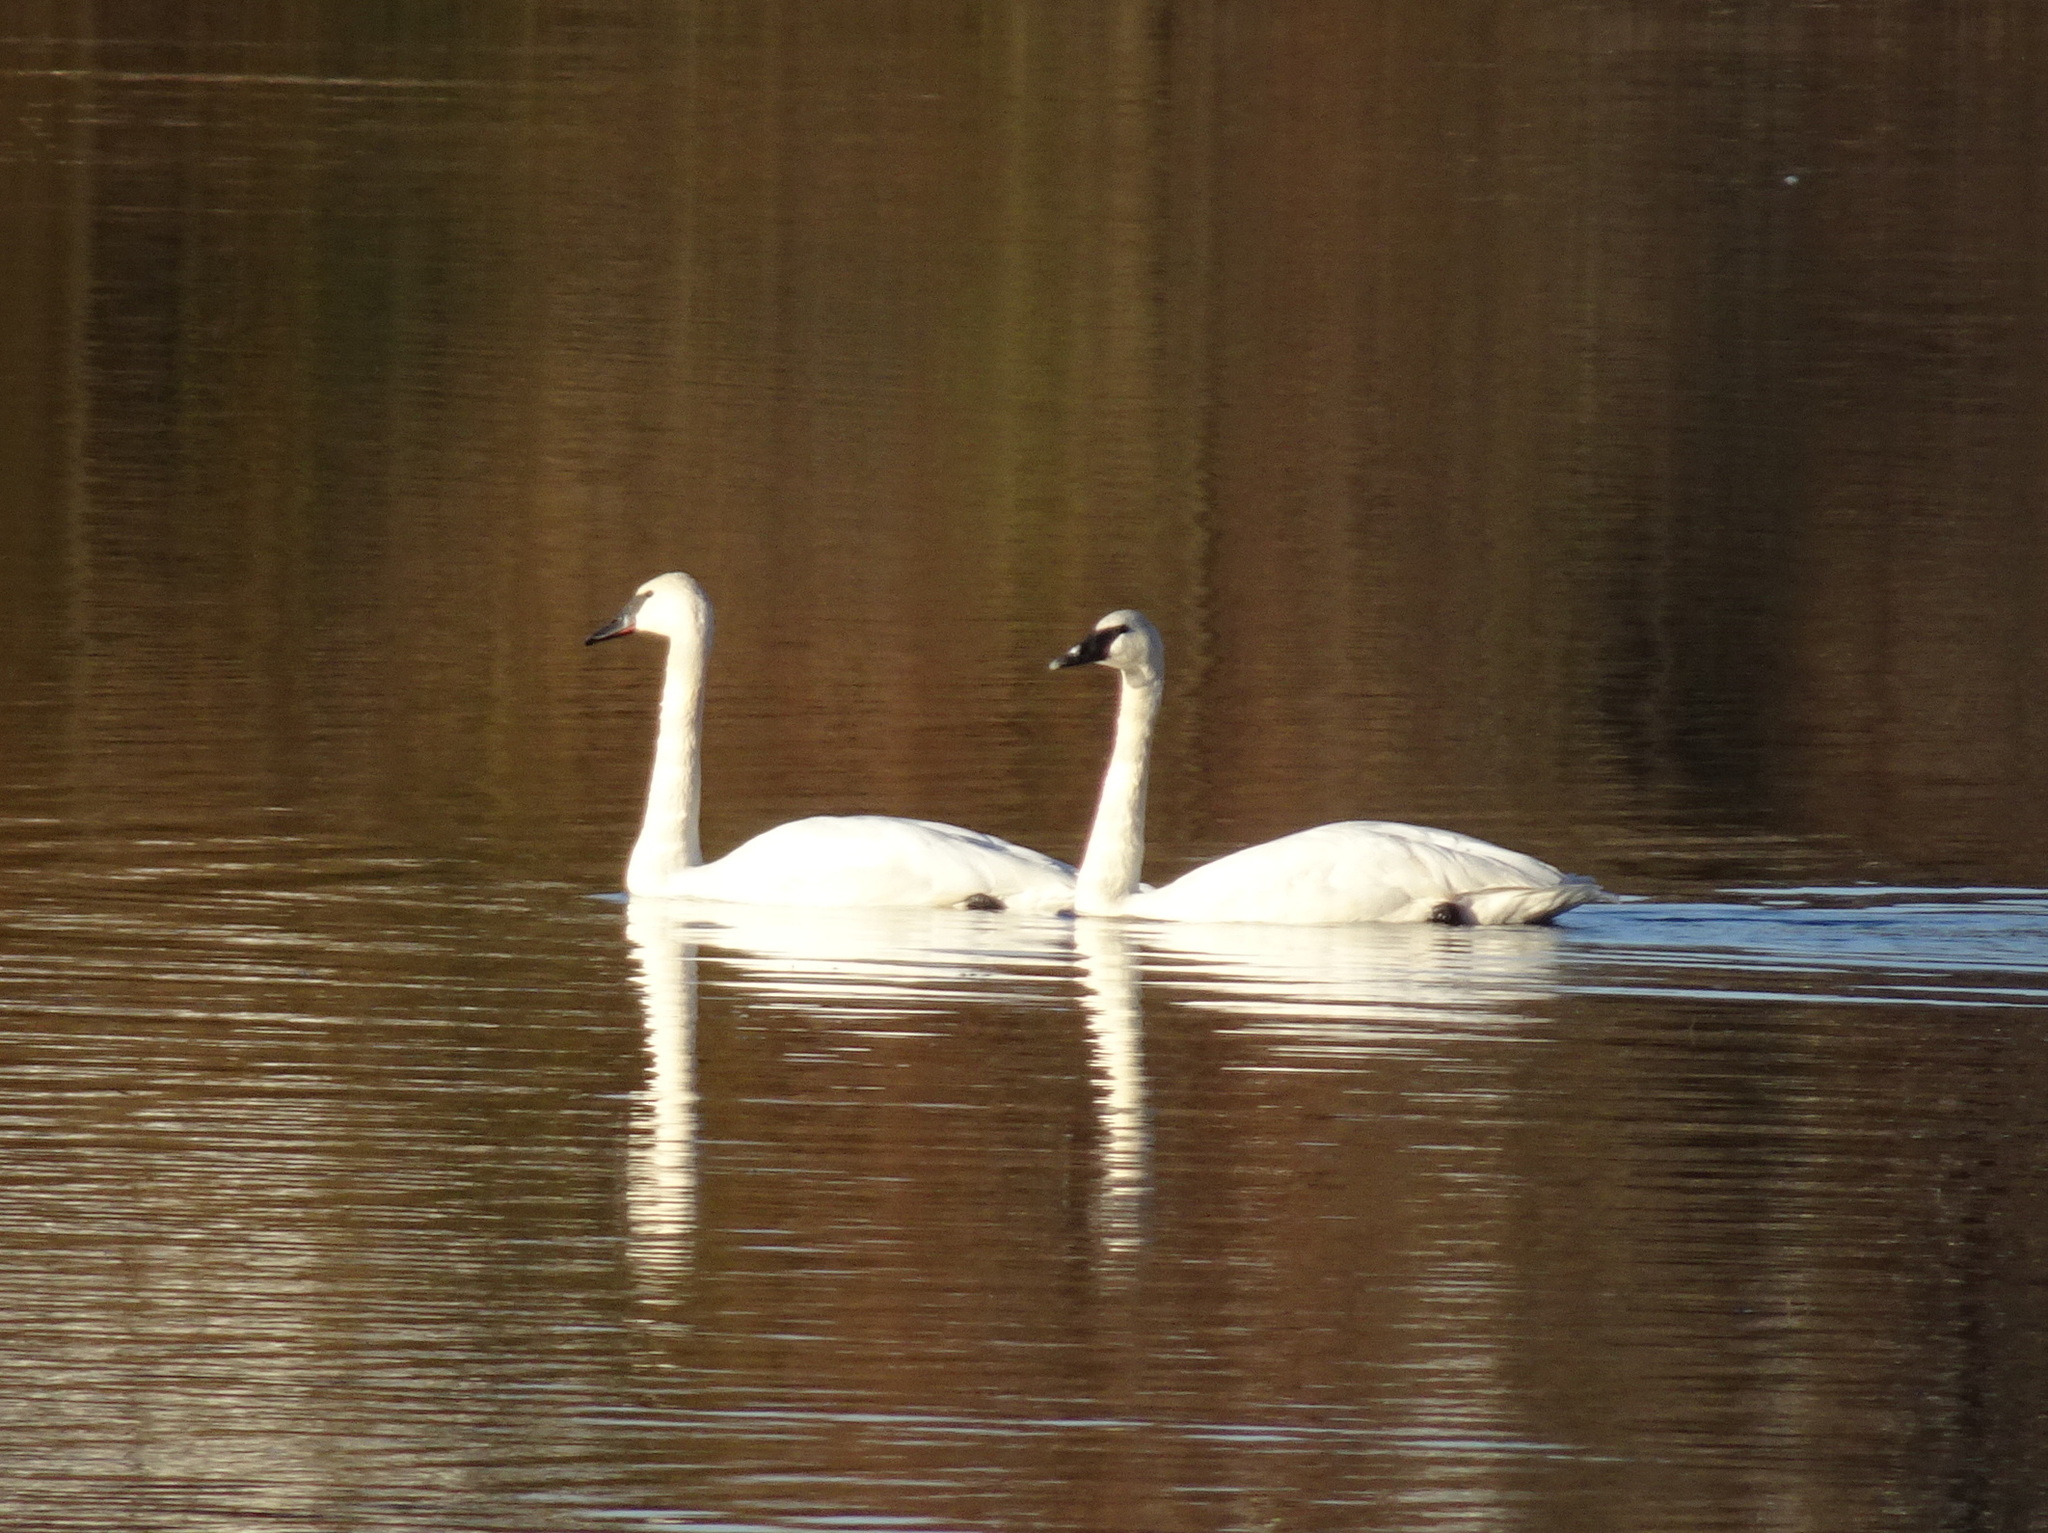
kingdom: Animalia
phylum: Chordata
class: Aves
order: Anseriformes
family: Anatidae
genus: Cygnus
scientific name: Cygnus buccinator
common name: Trumpeter swan
